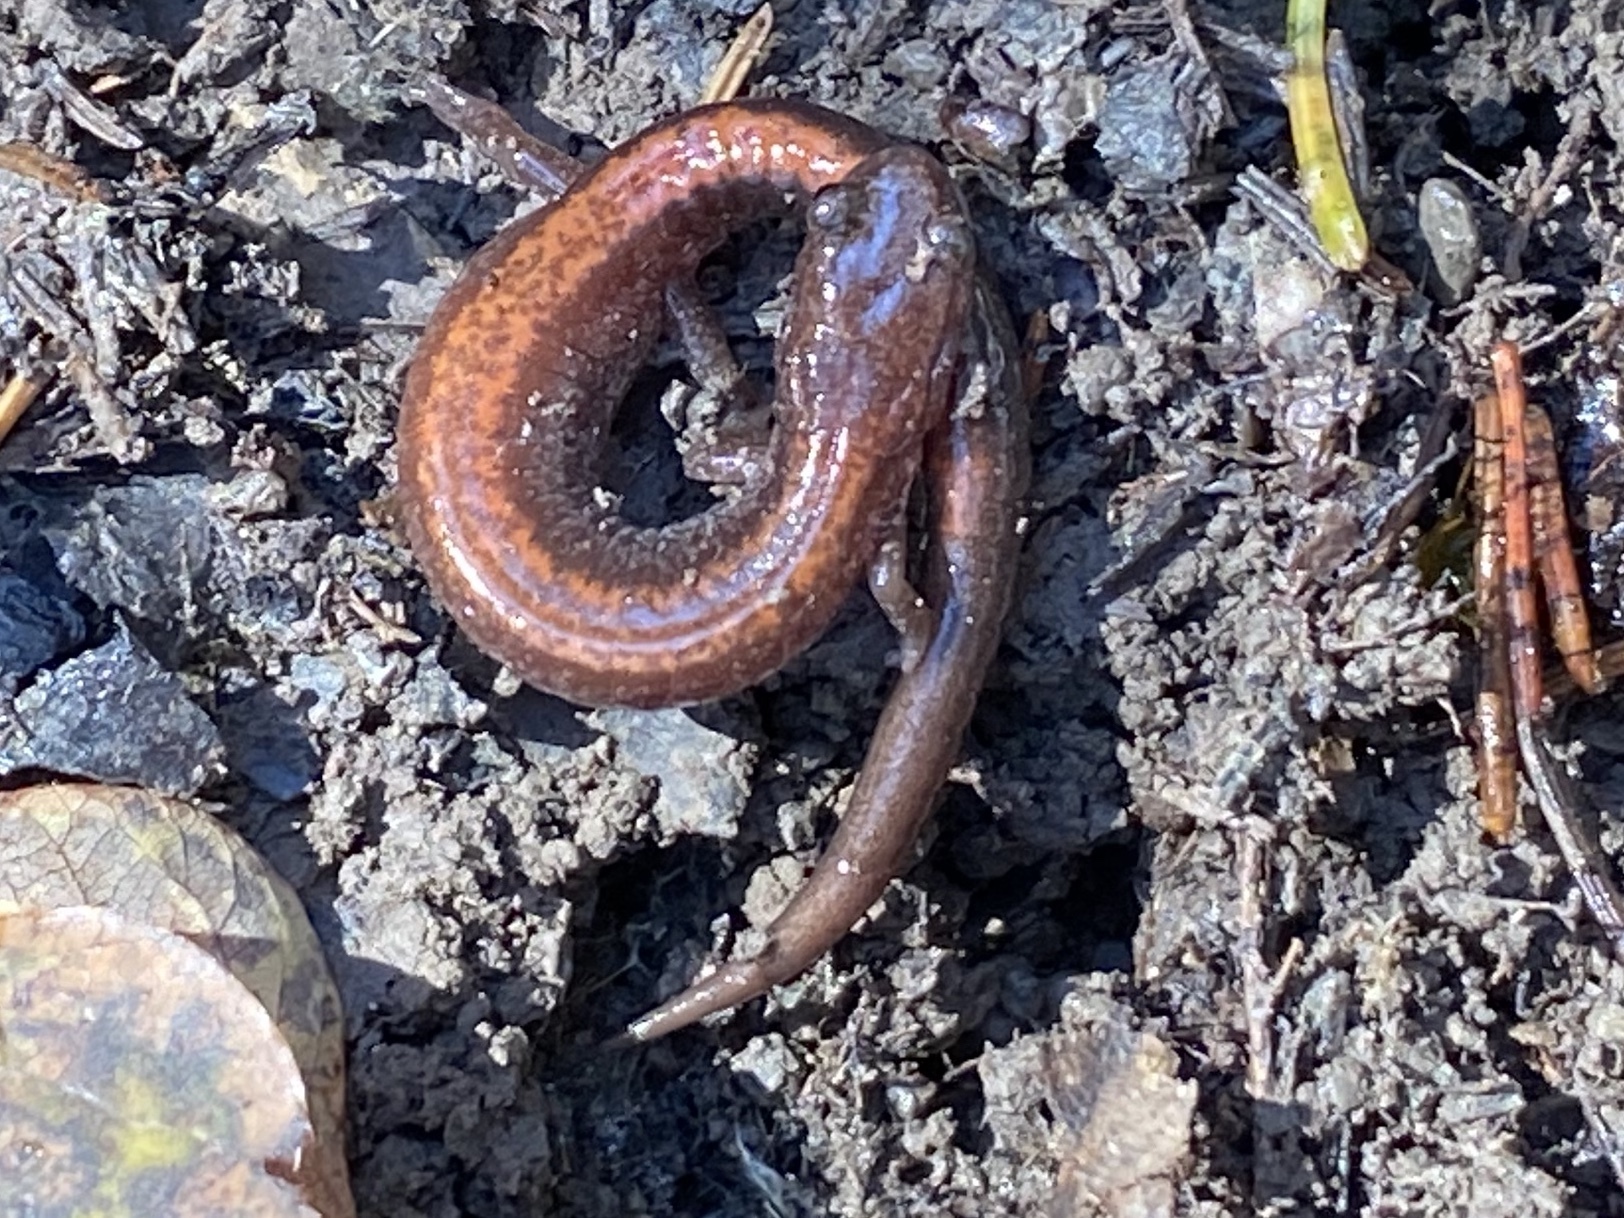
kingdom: Animalia
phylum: Chordata
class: Amphibia
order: Caudata
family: Plethodontidae
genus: Plethodon
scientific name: Plethodon cinereus
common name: Redback salamander
